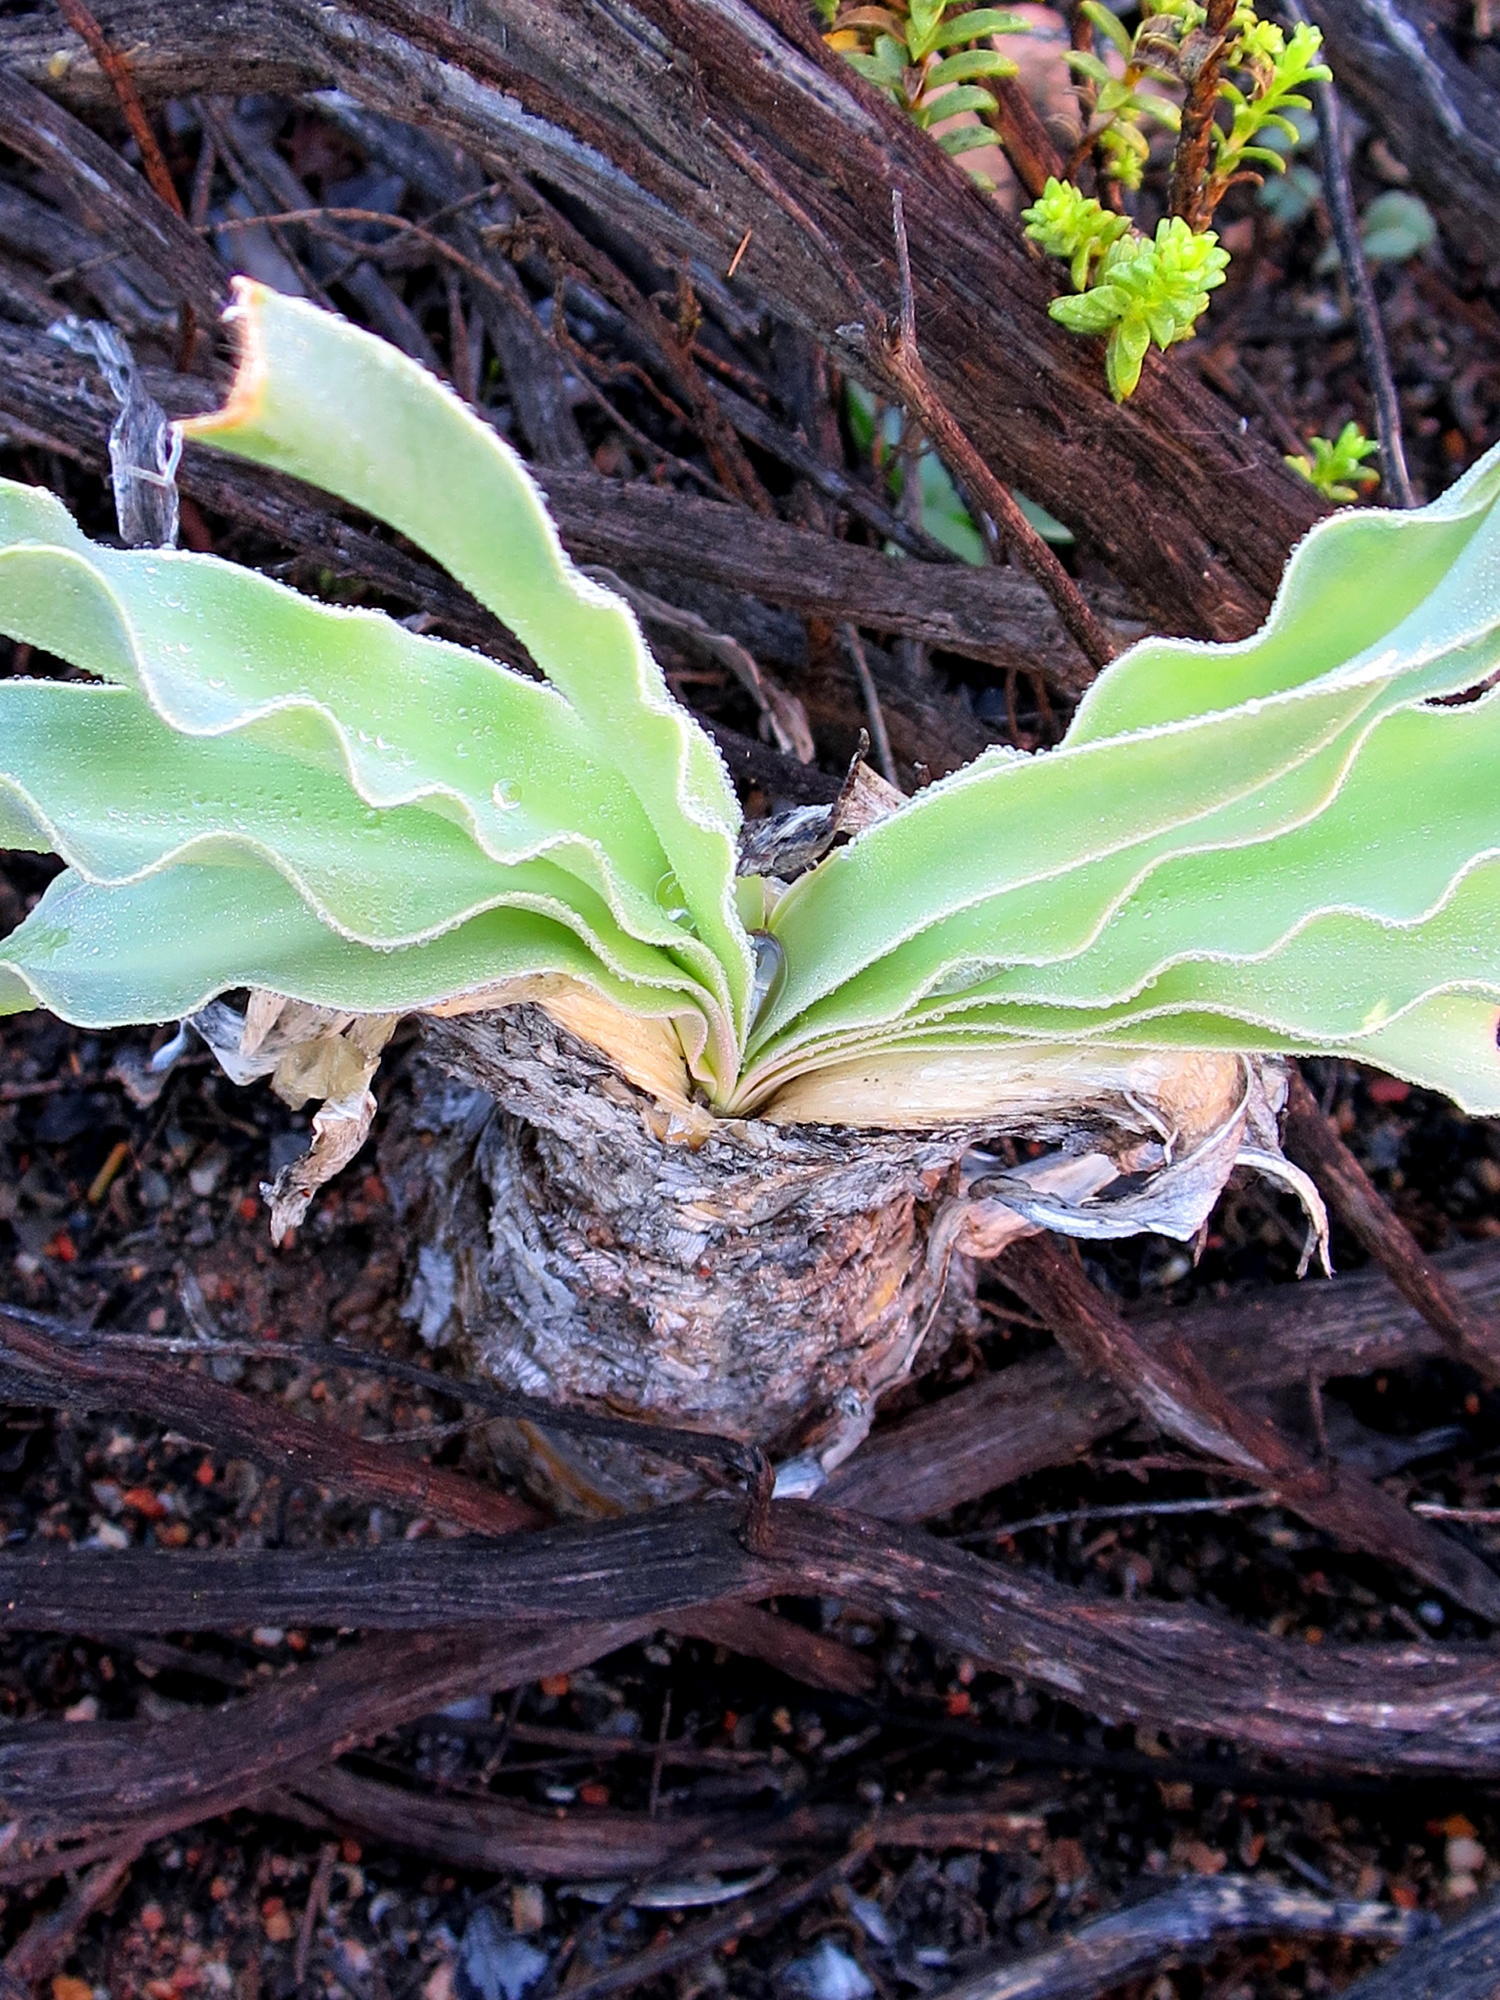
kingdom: Plantae
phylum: Tracheophyta
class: Liliopsida
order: Asparagales
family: Amaryllidaceae
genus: Boophone
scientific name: Boophone disticha
